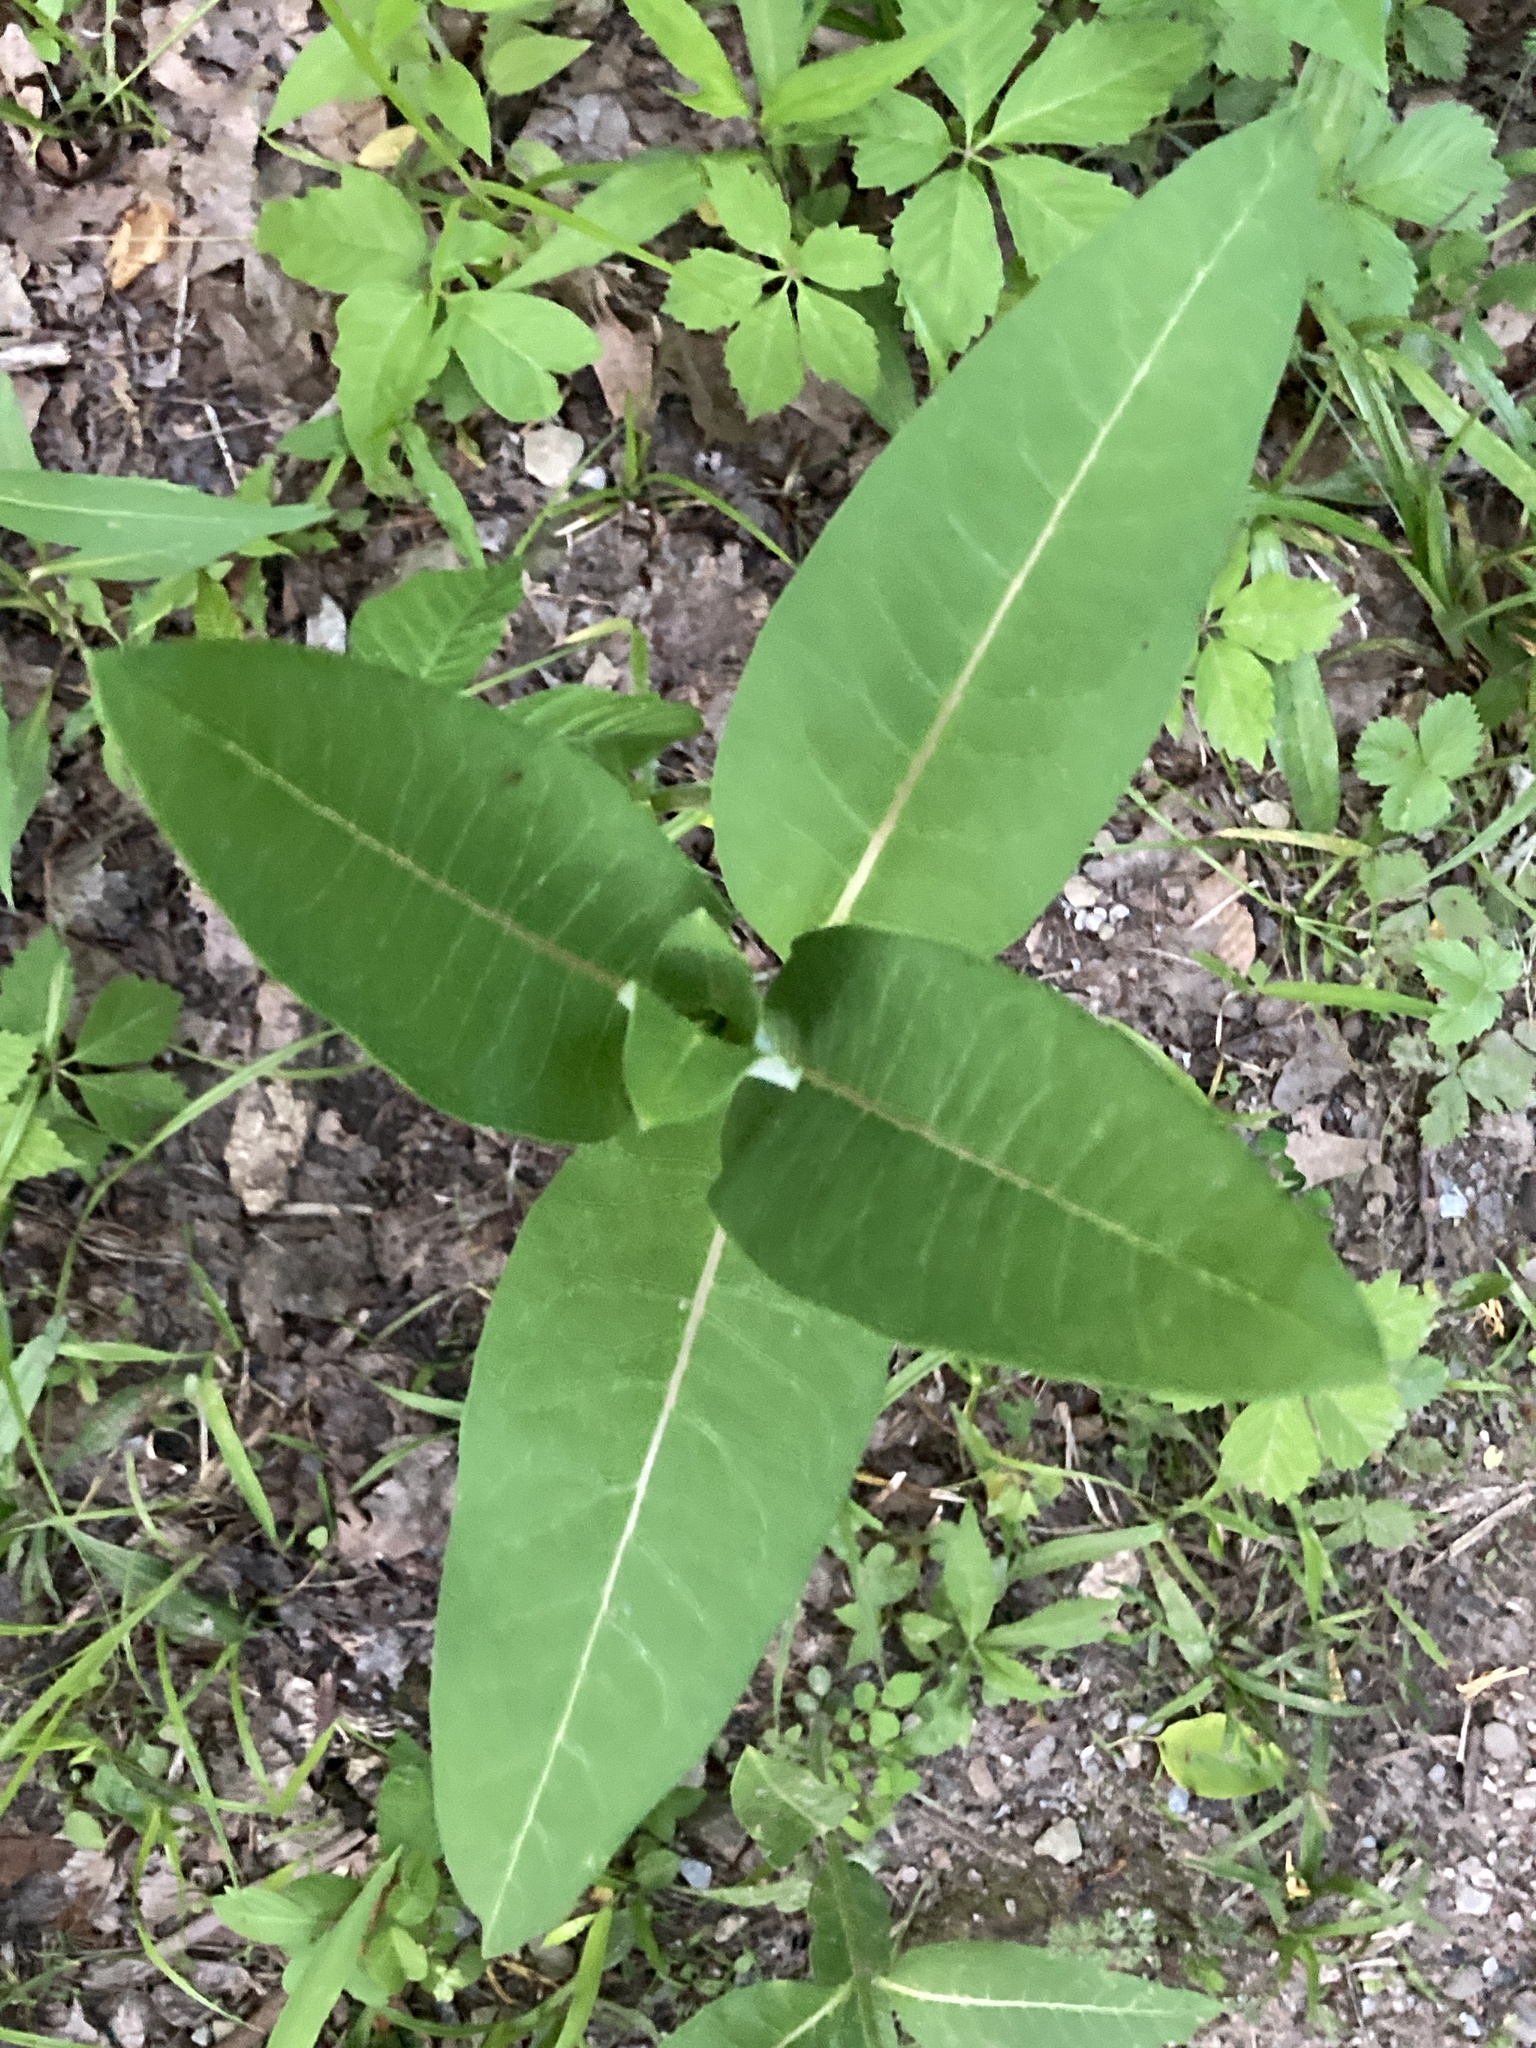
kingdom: Plantae
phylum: Tracheophyta
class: Magnoliopsida
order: Gentianales
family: Apocynaceae
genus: Asclepias
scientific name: Asclepias syriaca
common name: Common milkweed
